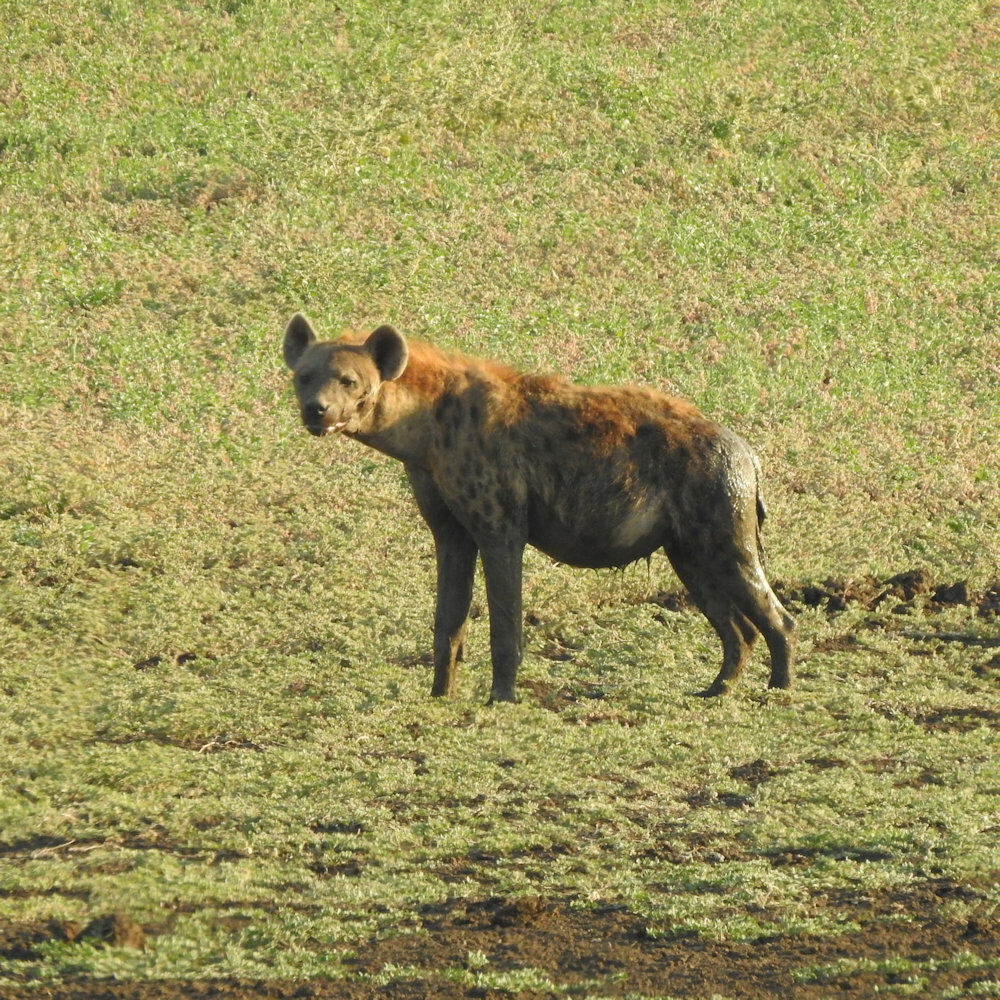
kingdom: Animalia
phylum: Chordata
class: Mammalia
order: Carnivora
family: Hyaenidae
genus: Crocuta
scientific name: Crocuta crocuta
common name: Spotted hyaena
